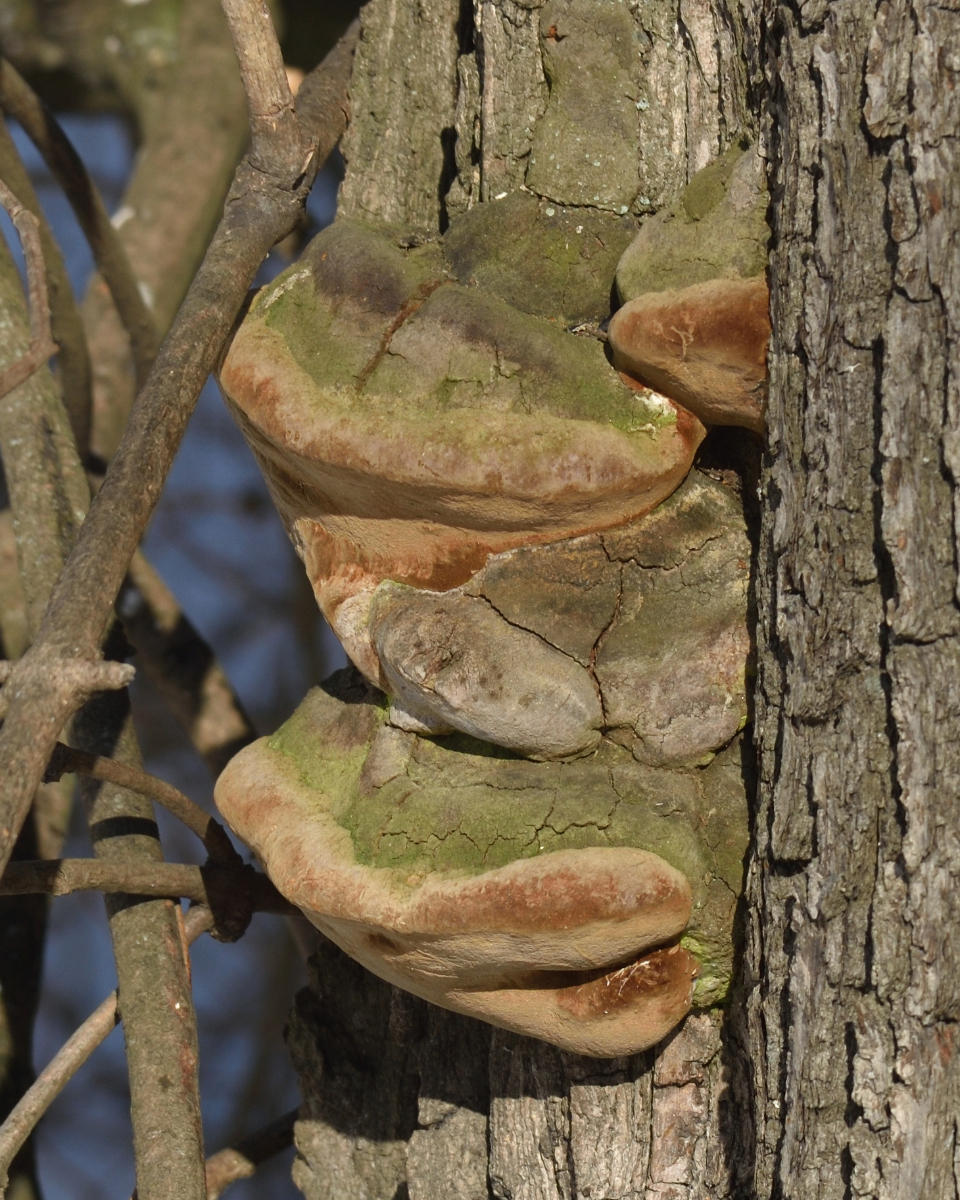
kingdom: Fungi
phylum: Basidiomycota
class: Agaricomycetes
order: Hymenochaetales
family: Hymenochaetaceae
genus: Fomitiporia
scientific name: Fomitiporia robusta
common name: Robust bracket
